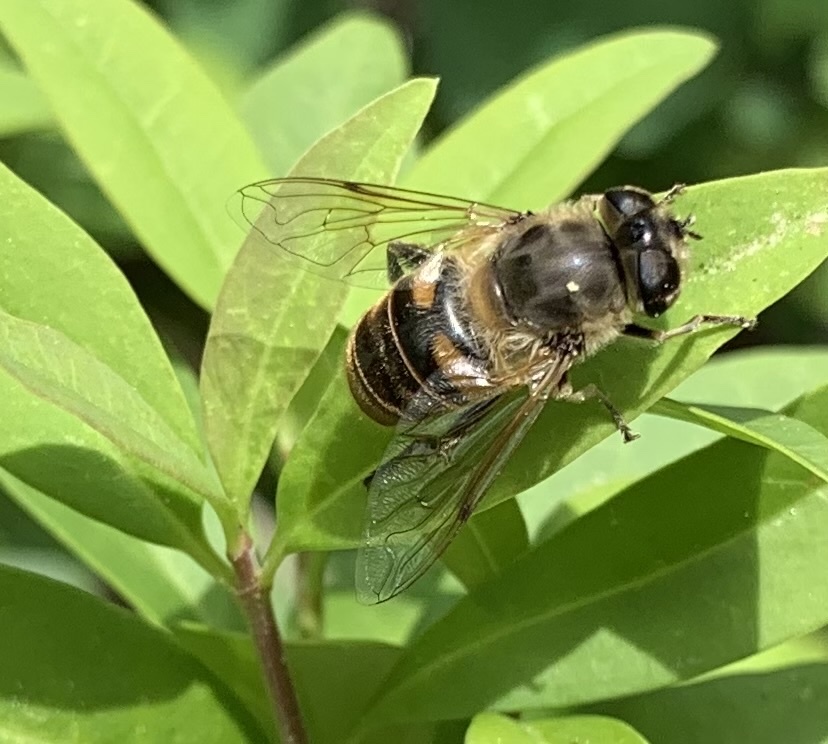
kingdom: Animalia
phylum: Arthropoda
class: Insecta
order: Diptera
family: Syrphidae
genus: Eristalis
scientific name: Eristalis tenax
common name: Drone fly
